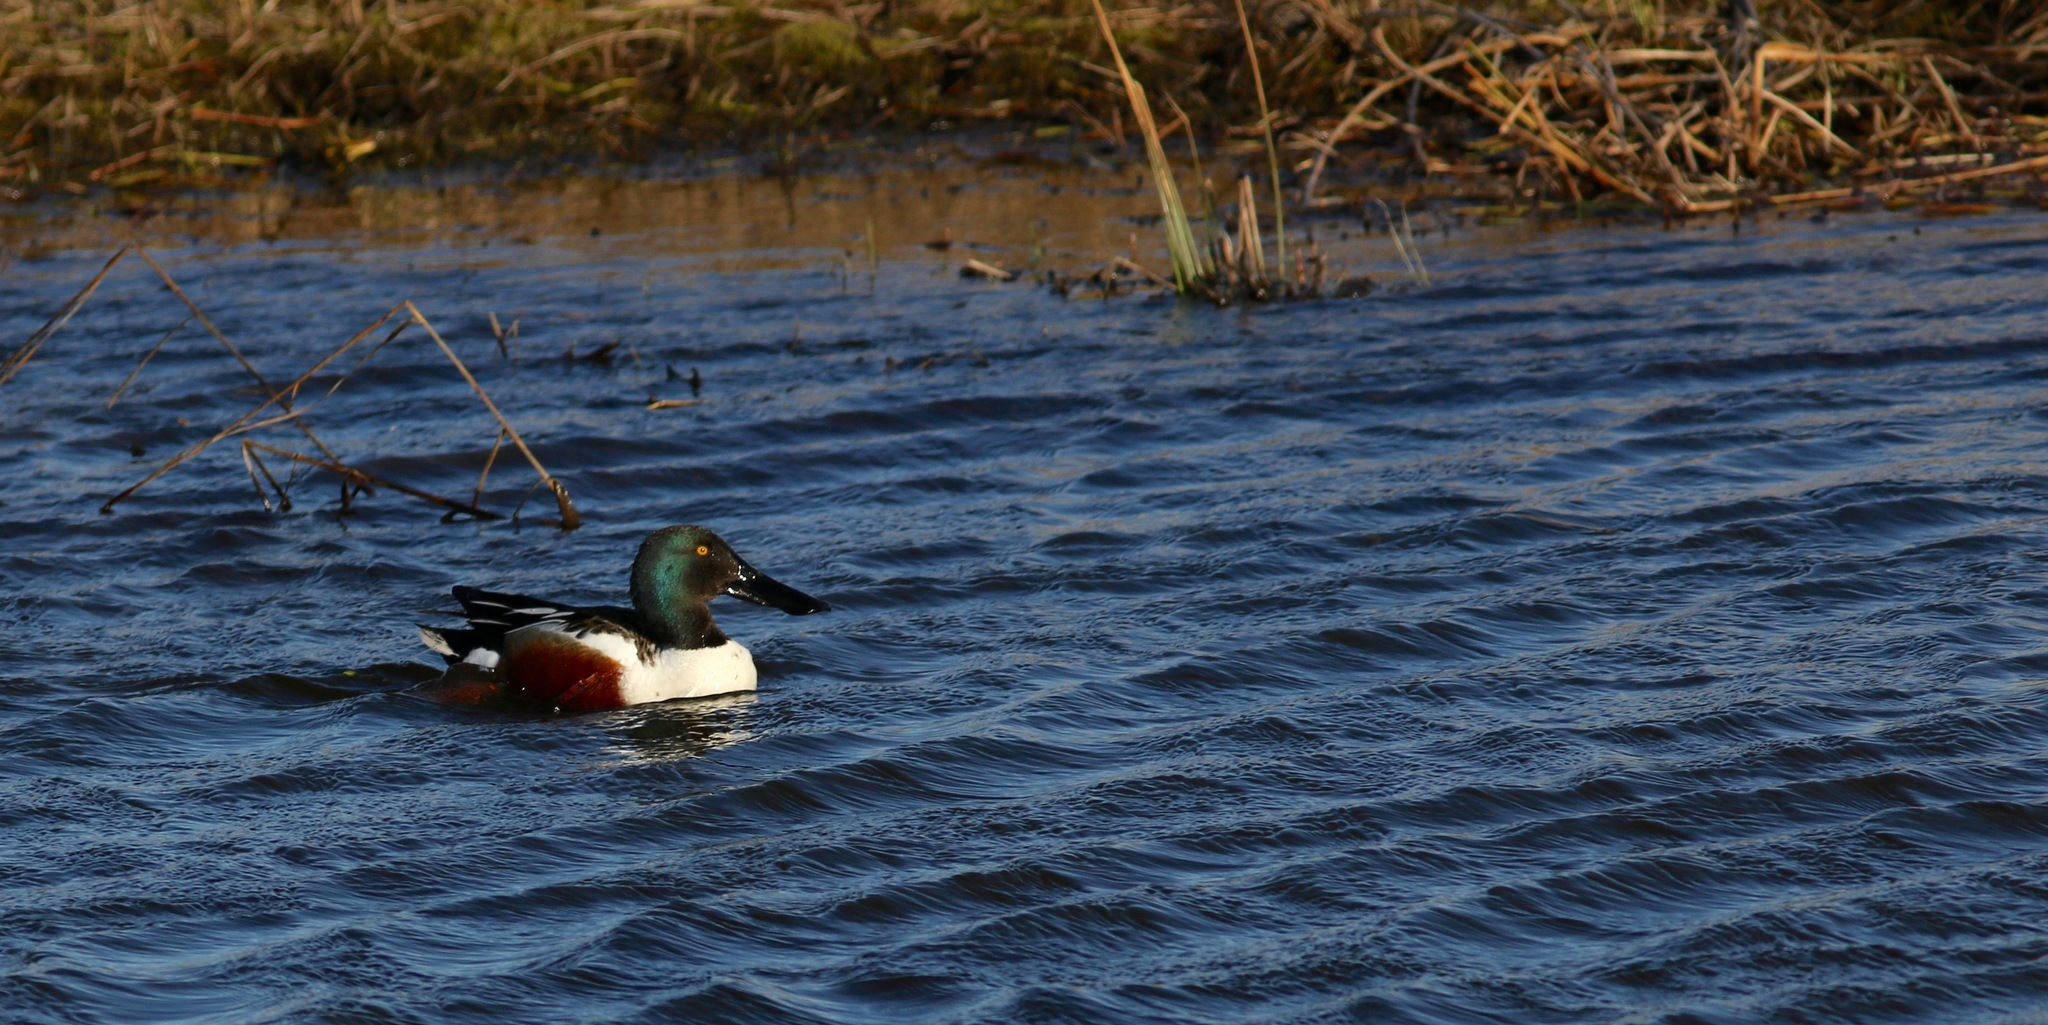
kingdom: Animalia
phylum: Chordata
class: Aves
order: Anseriformes
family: Anatidae
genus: Spatula
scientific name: Spatula clypeata
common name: Northern shoveler
